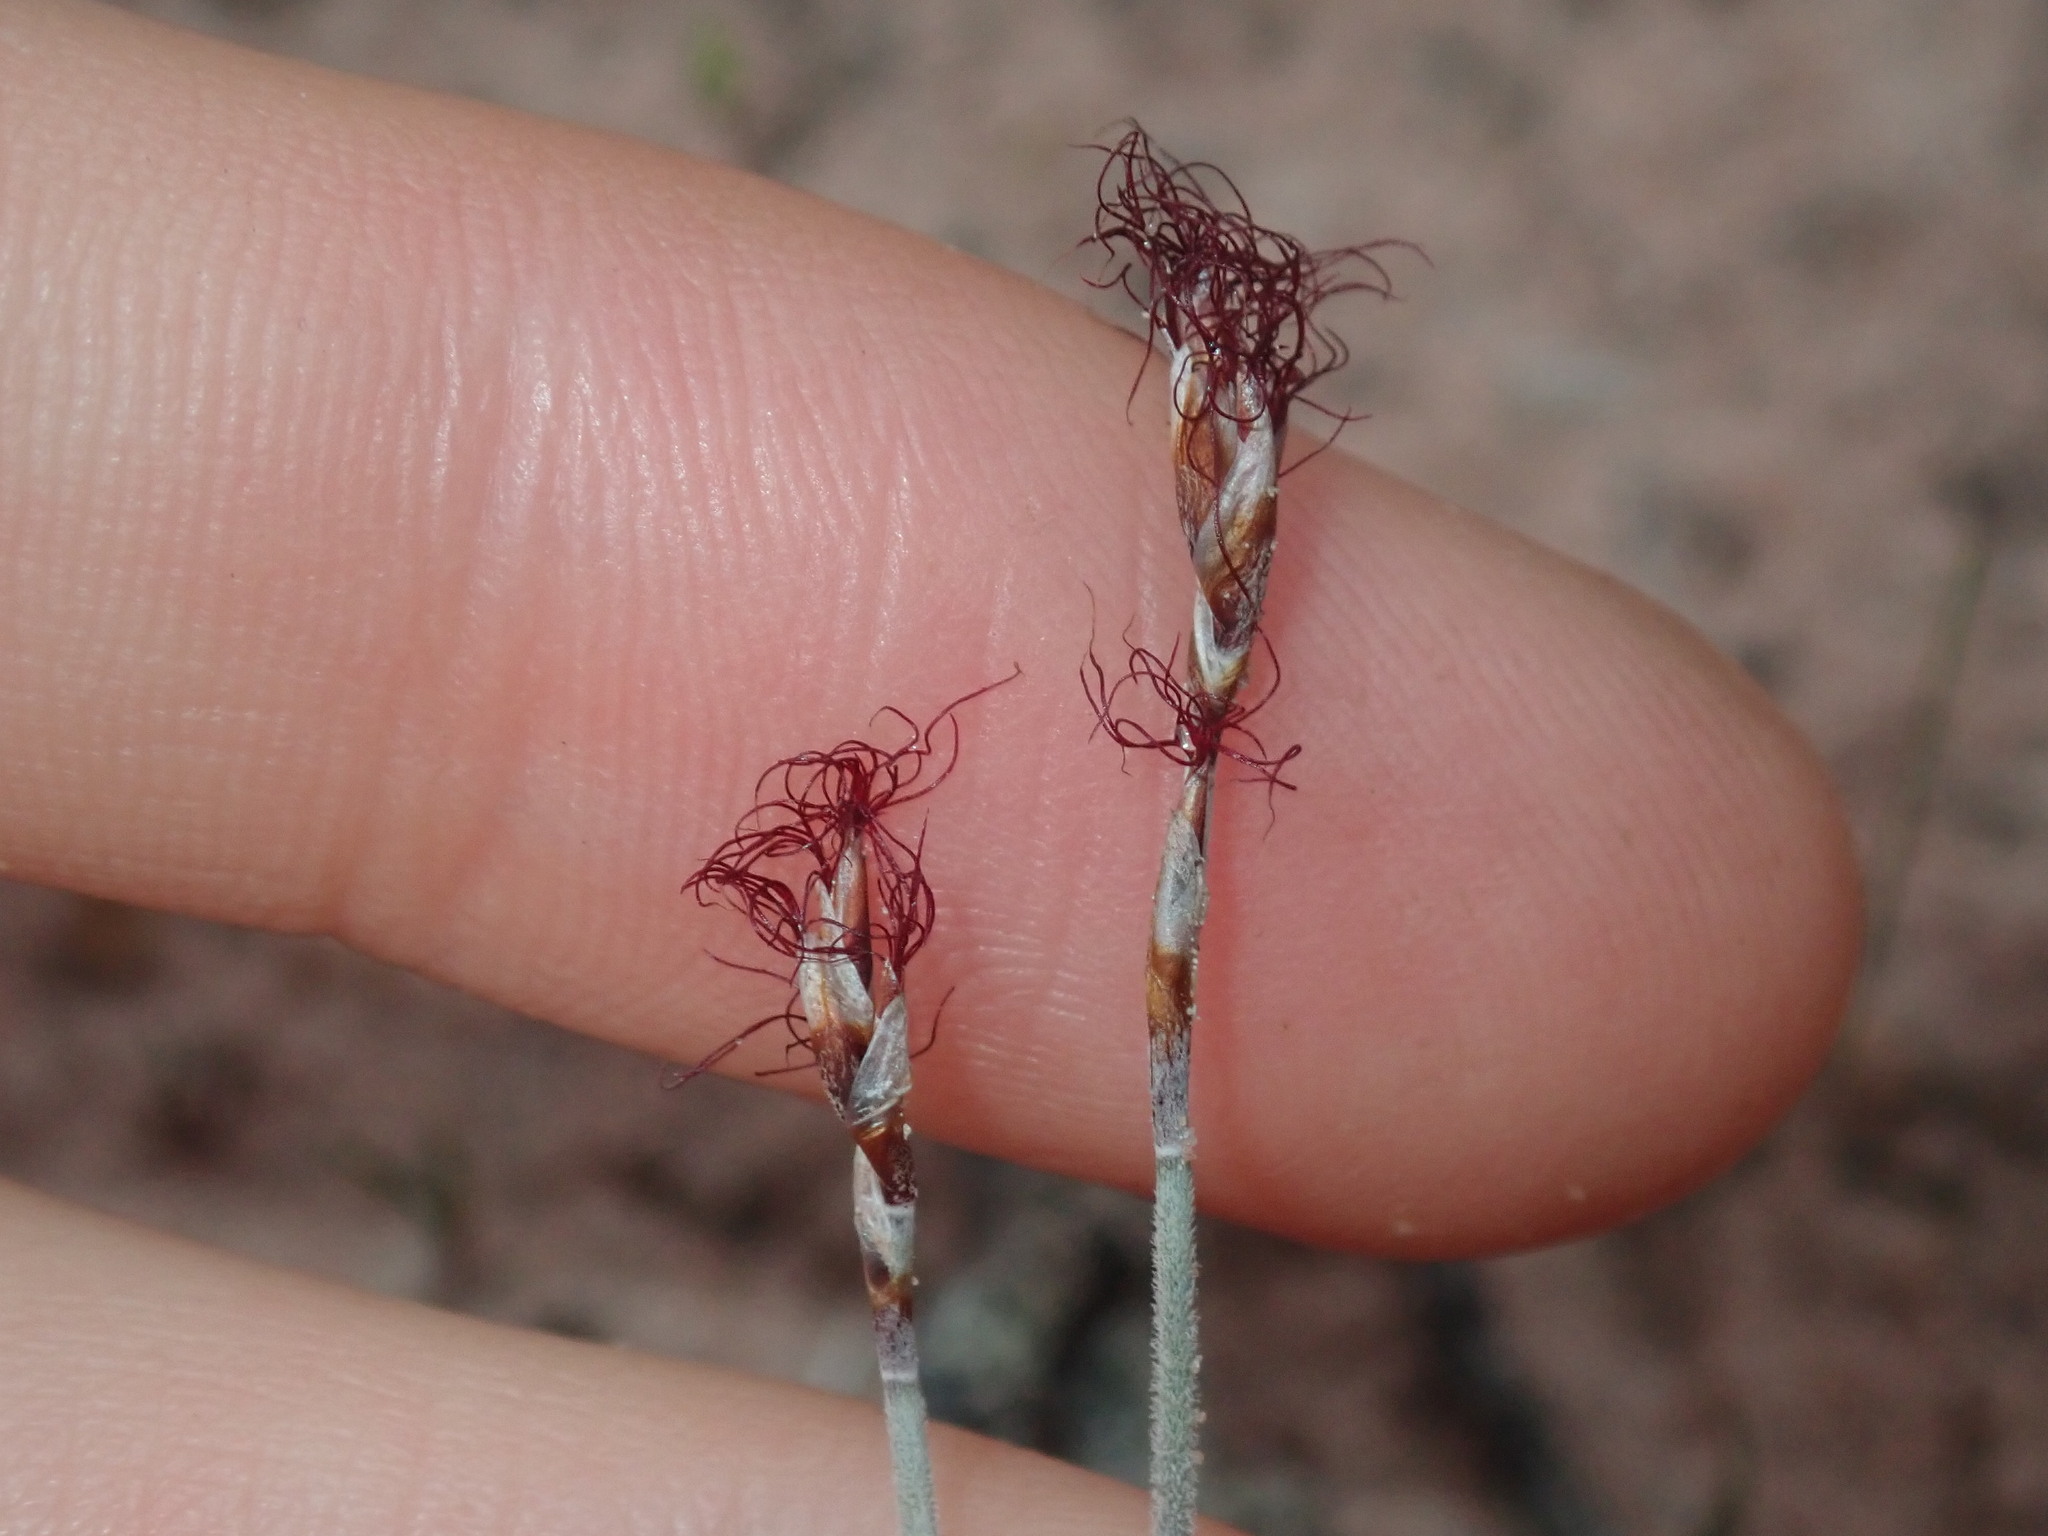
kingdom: Plantae
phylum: Tracheophyta
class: Liliopsida
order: Poales
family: Restionaceae
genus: Chaetanthus
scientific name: Chaetanthus tenellus
